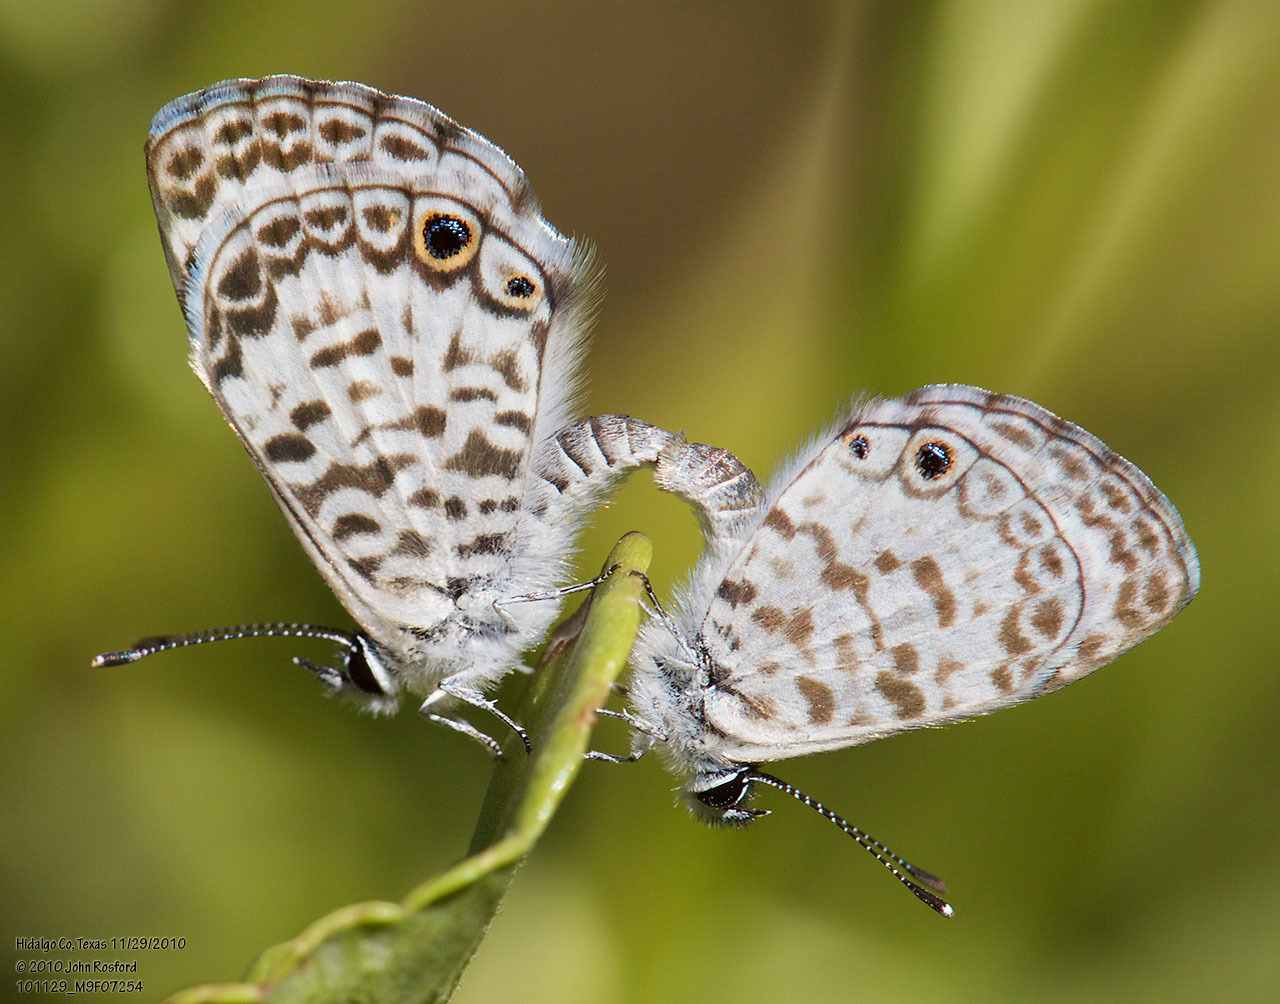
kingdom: Animalia
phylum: Arthropoda
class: Insecta
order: Lepidoptera
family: Lycaenidae
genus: Leptotes
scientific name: Leptotes cassius
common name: Cassius blue
